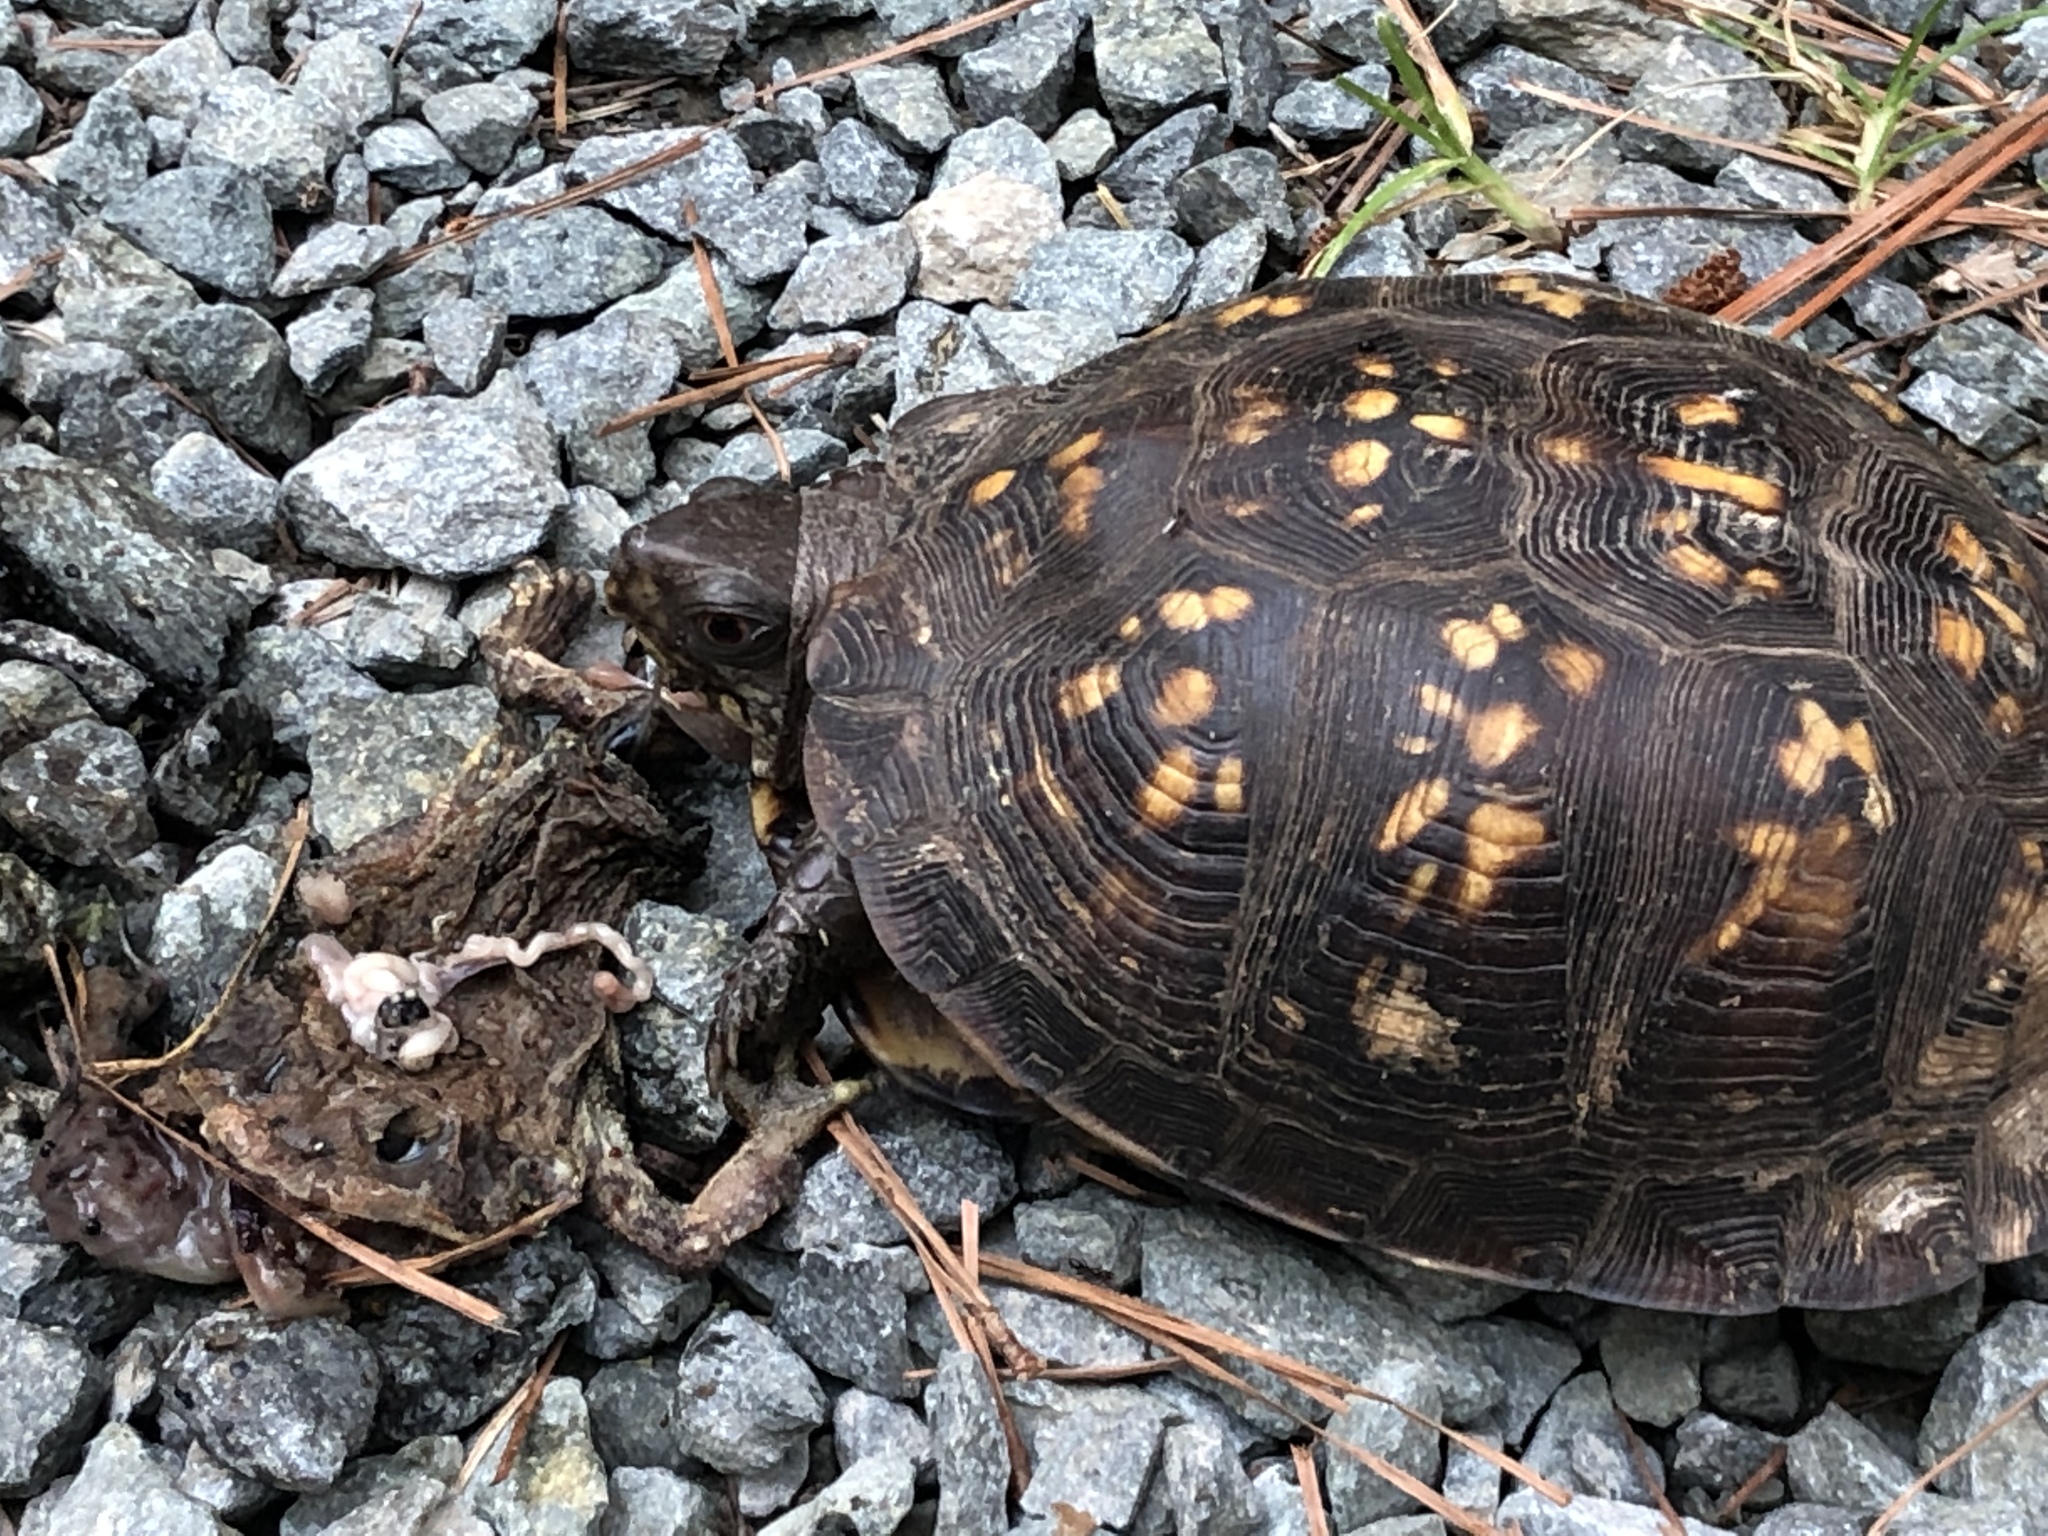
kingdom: Animalia
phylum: Chordata
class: Testudines
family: Emydidae
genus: Terrapene
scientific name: Terrapene carolina
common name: Common box turtle
